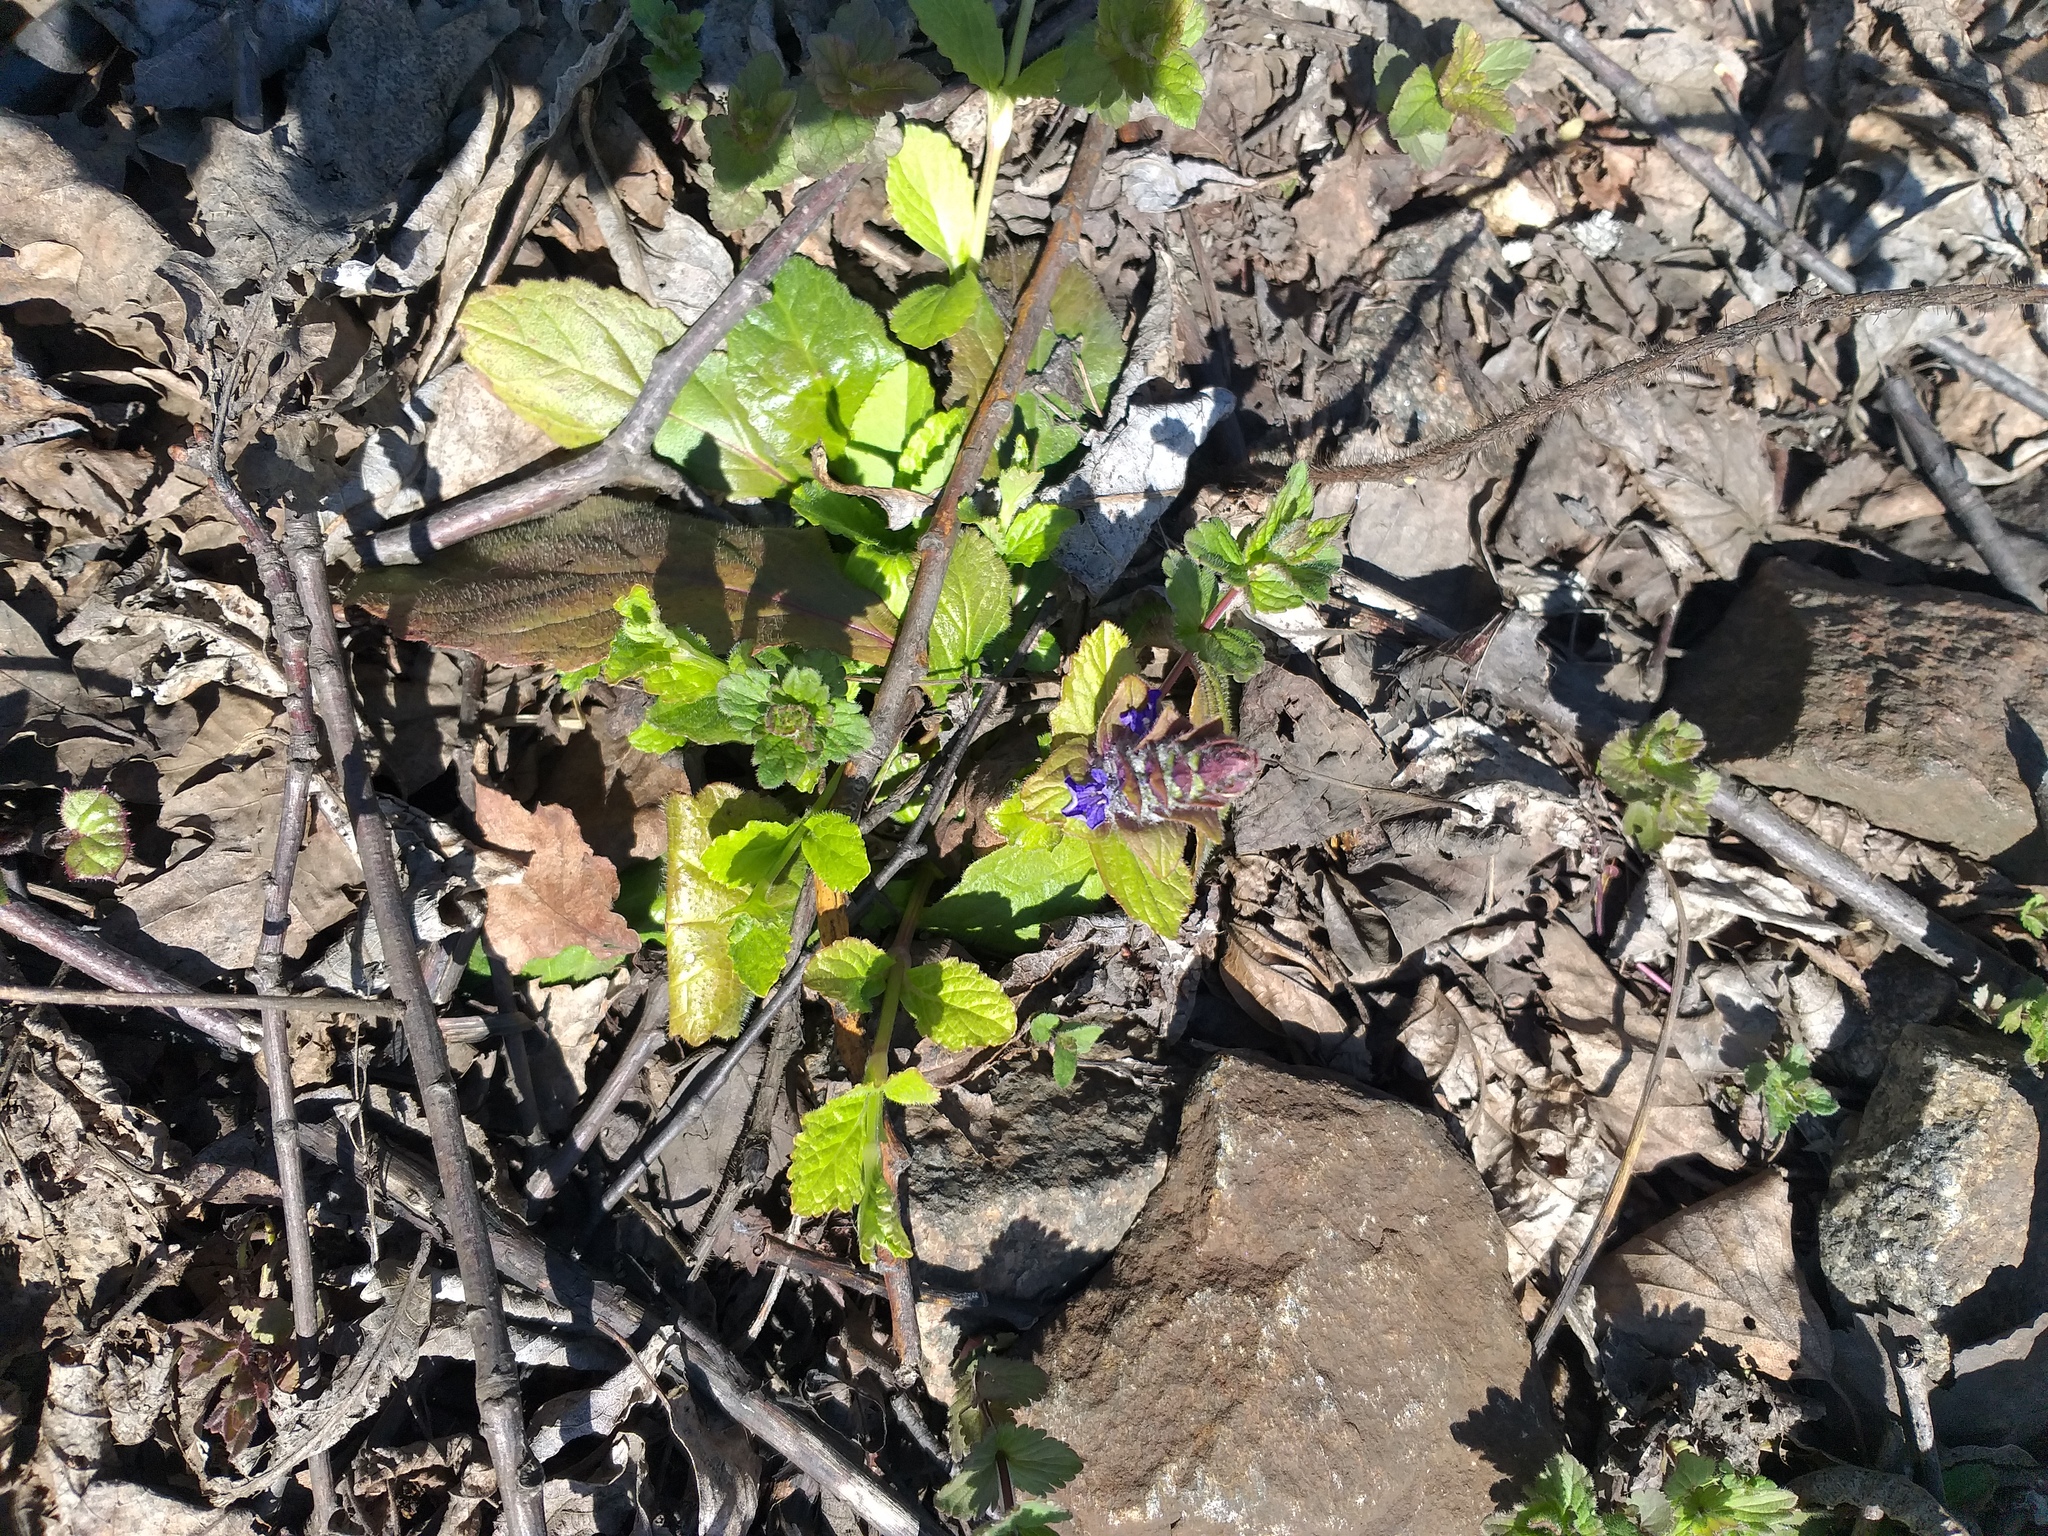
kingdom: Plantae
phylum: Tracheophyta
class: Magnoliopsida
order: Lamiales
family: Lamiaceae
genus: Ajuga
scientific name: Ajuga reptans
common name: Bugle
